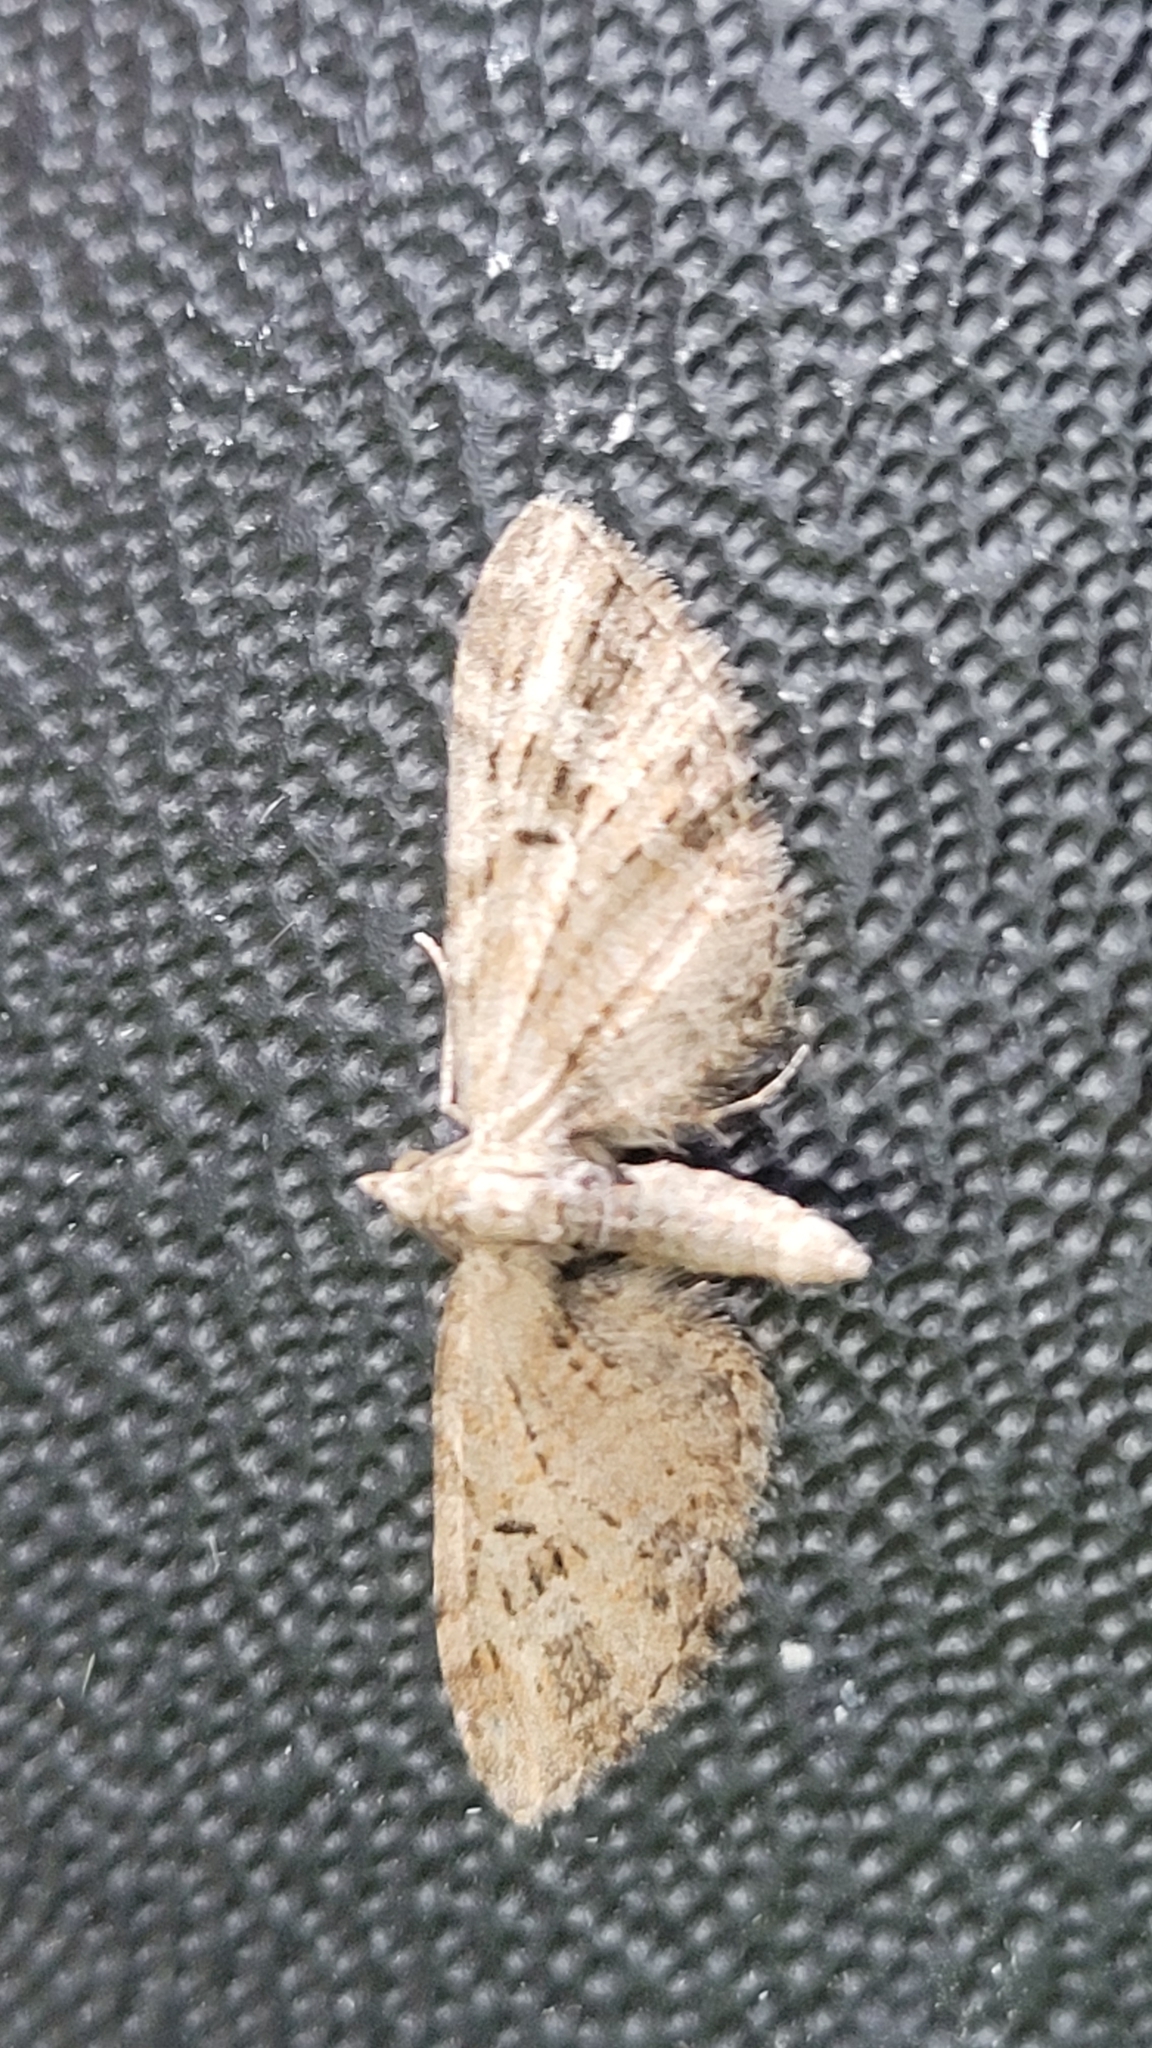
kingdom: Animalia
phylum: Arthropoda
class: Insecta
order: Lepidoptera
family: Geometridae
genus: Eupithecia
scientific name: Eupithecia exiguata
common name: Mottled pug
